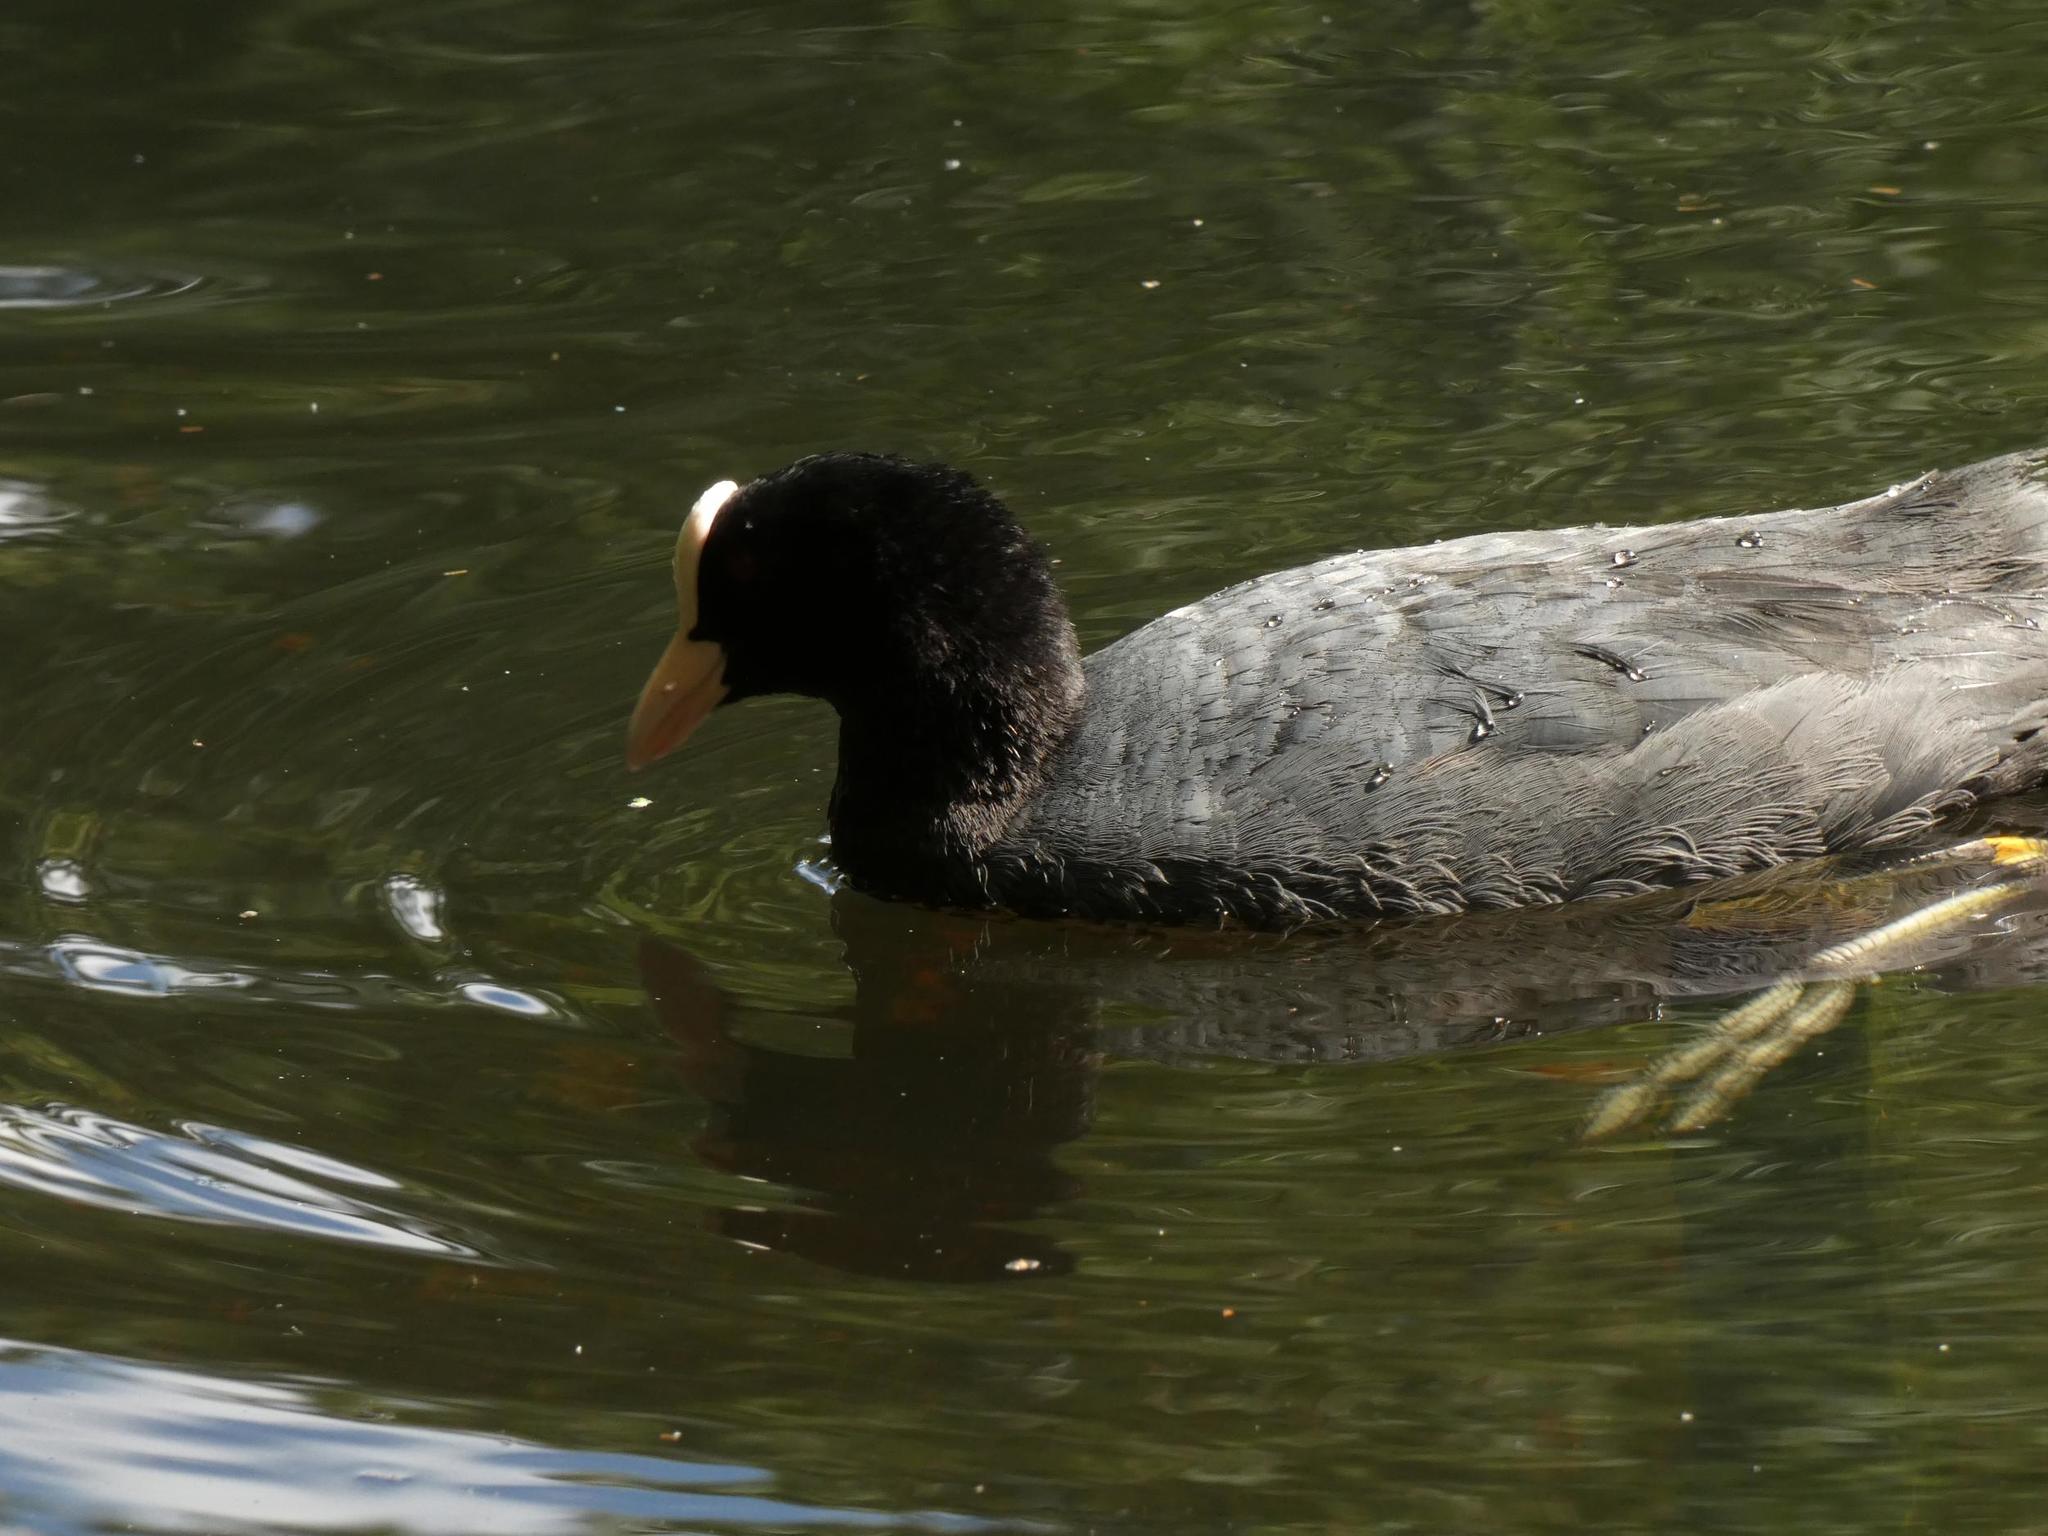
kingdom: Animalia
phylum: Chordata
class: Aves
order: Gruiformes
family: Rallidae
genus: Fulica
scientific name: Fulica atra
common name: Eurasian coot
